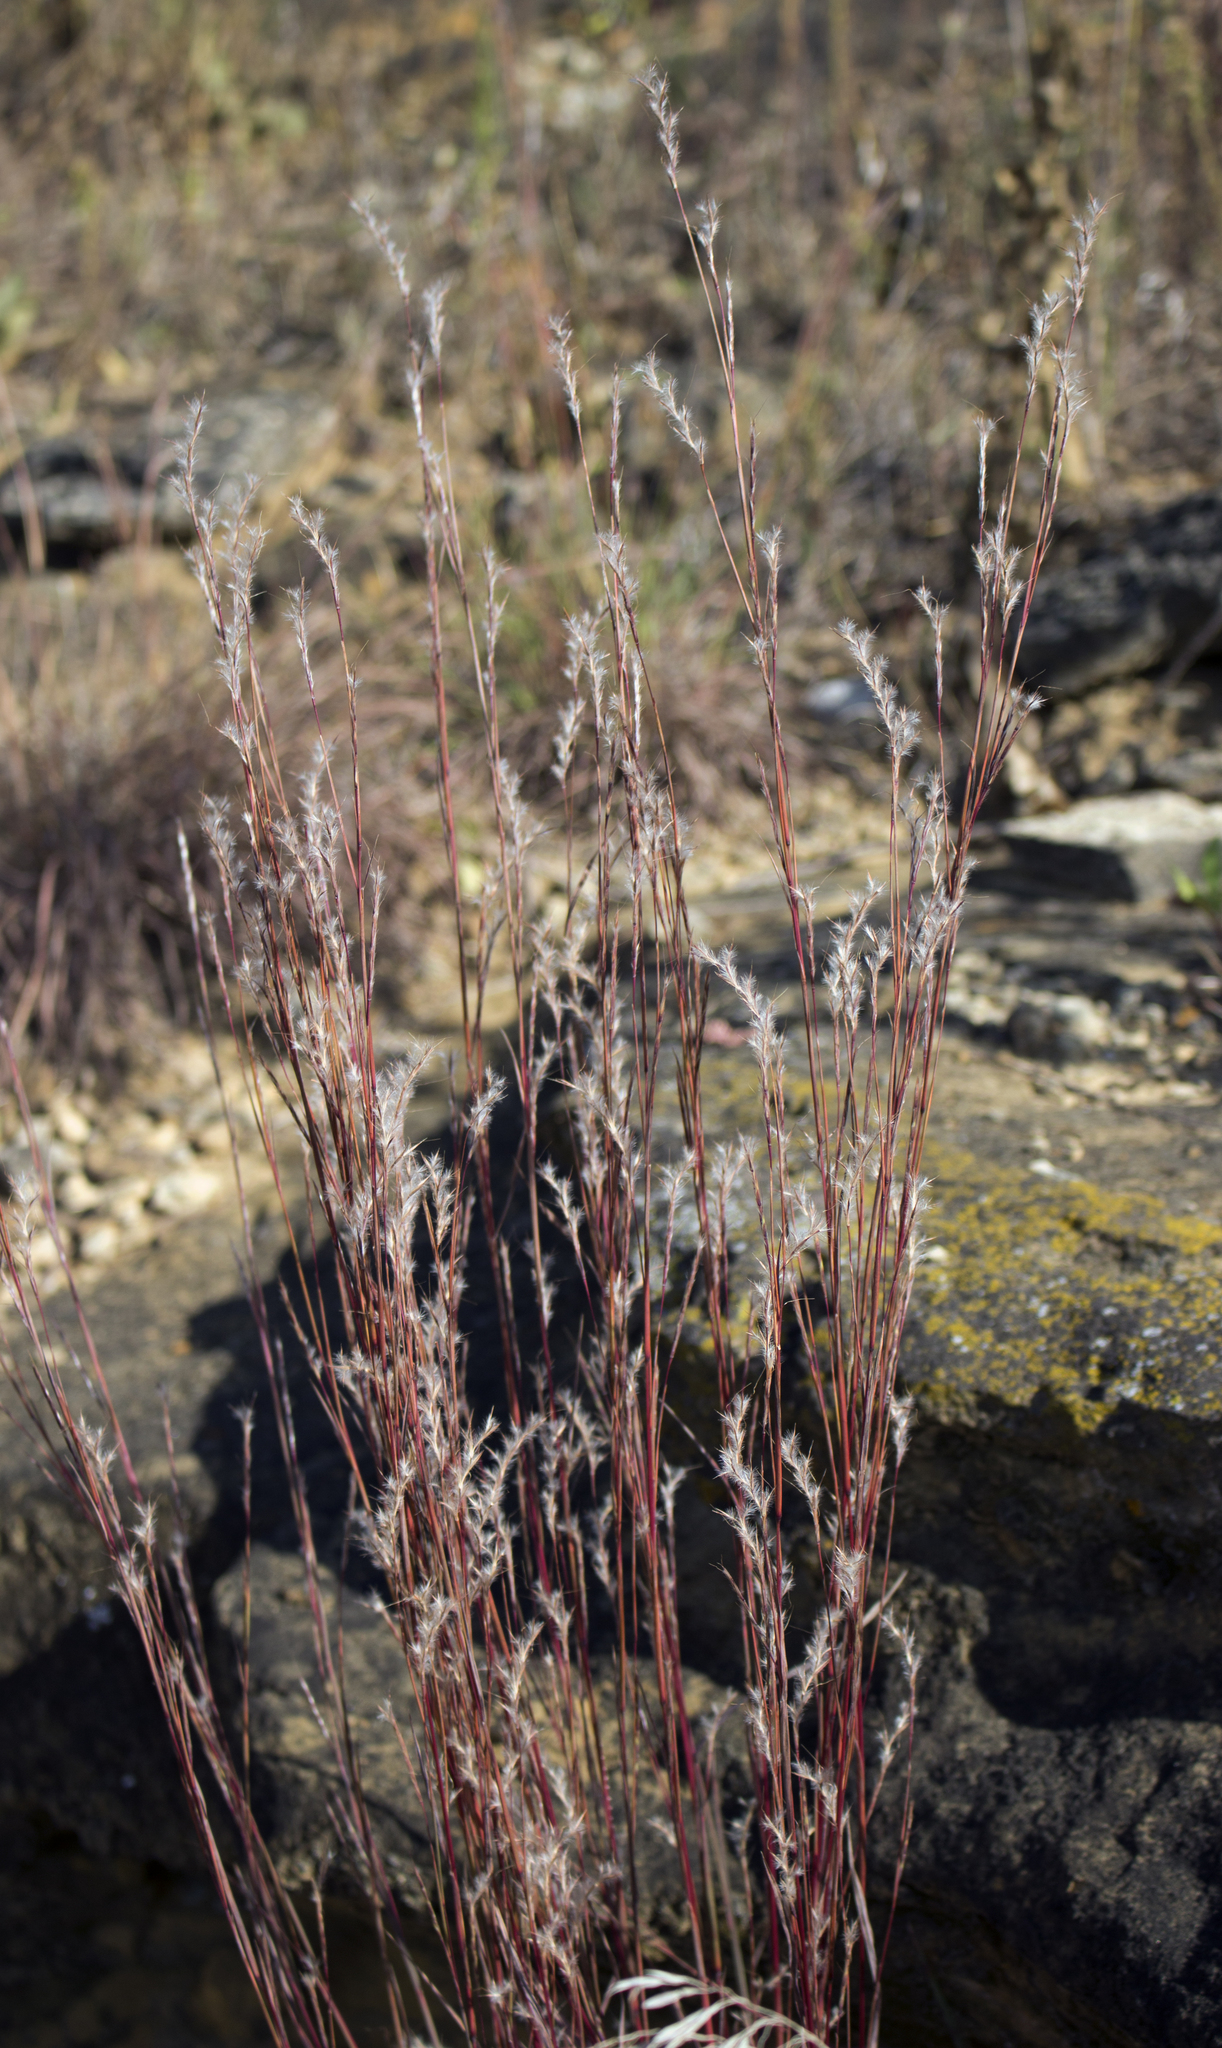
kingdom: Plantae
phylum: Tracheophyta
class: Liliopsida
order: Poales
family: Poaceae
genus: Schizachyrium
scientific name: Schizachyrium scoparium
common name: Little bluestem
